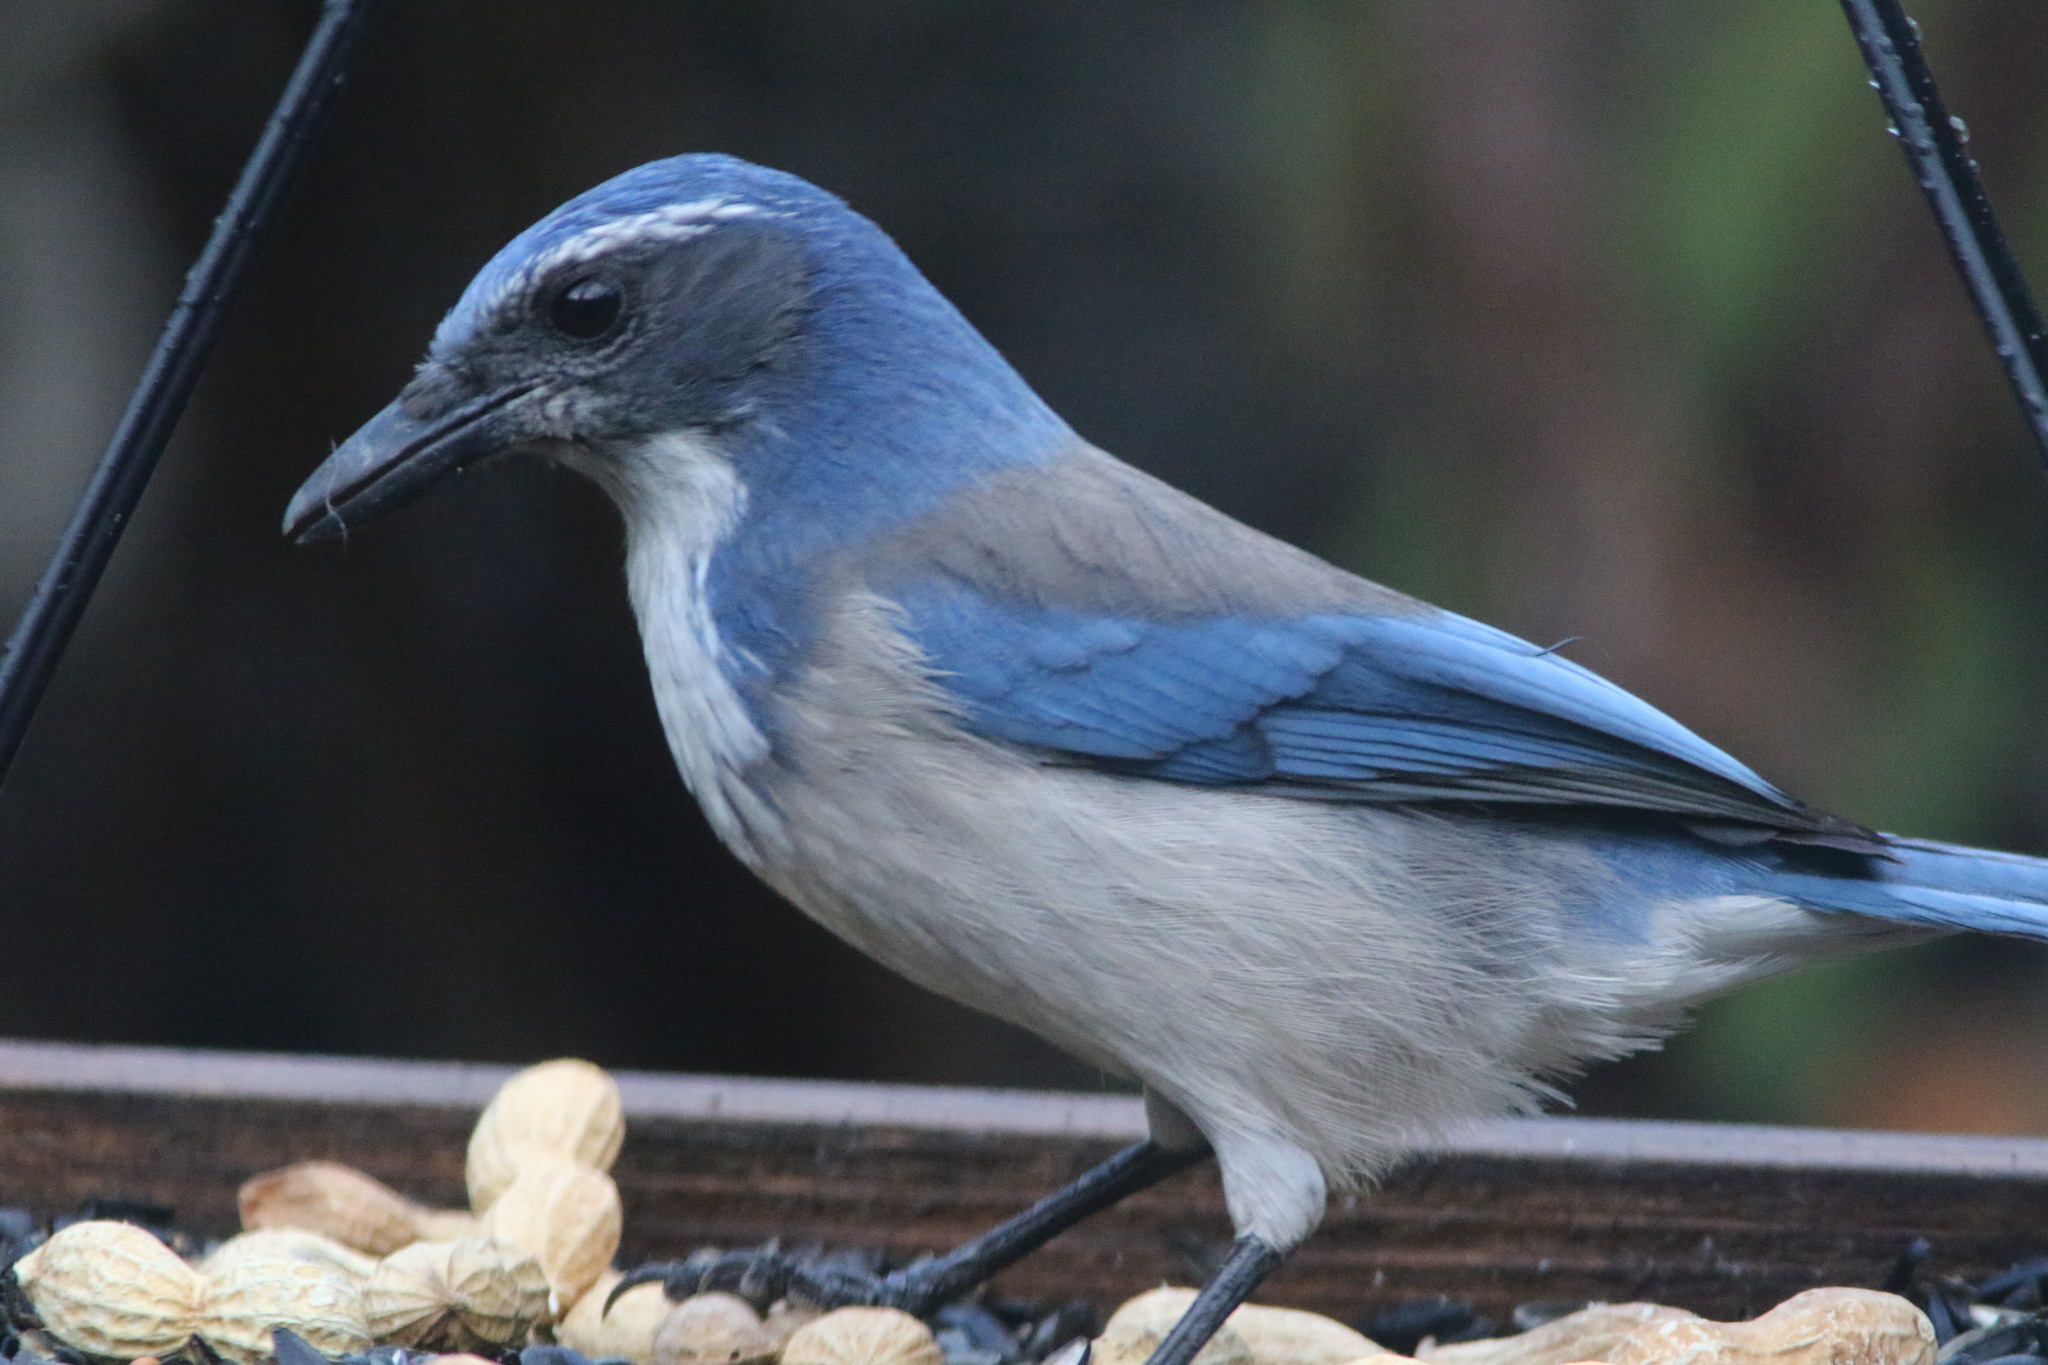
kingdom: Animalia
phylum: Chordata
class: Aves
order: Passeriformes
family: Corvidae
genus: Aphelocoma
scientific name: Aphelocoma californica
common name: California scrub-jay
